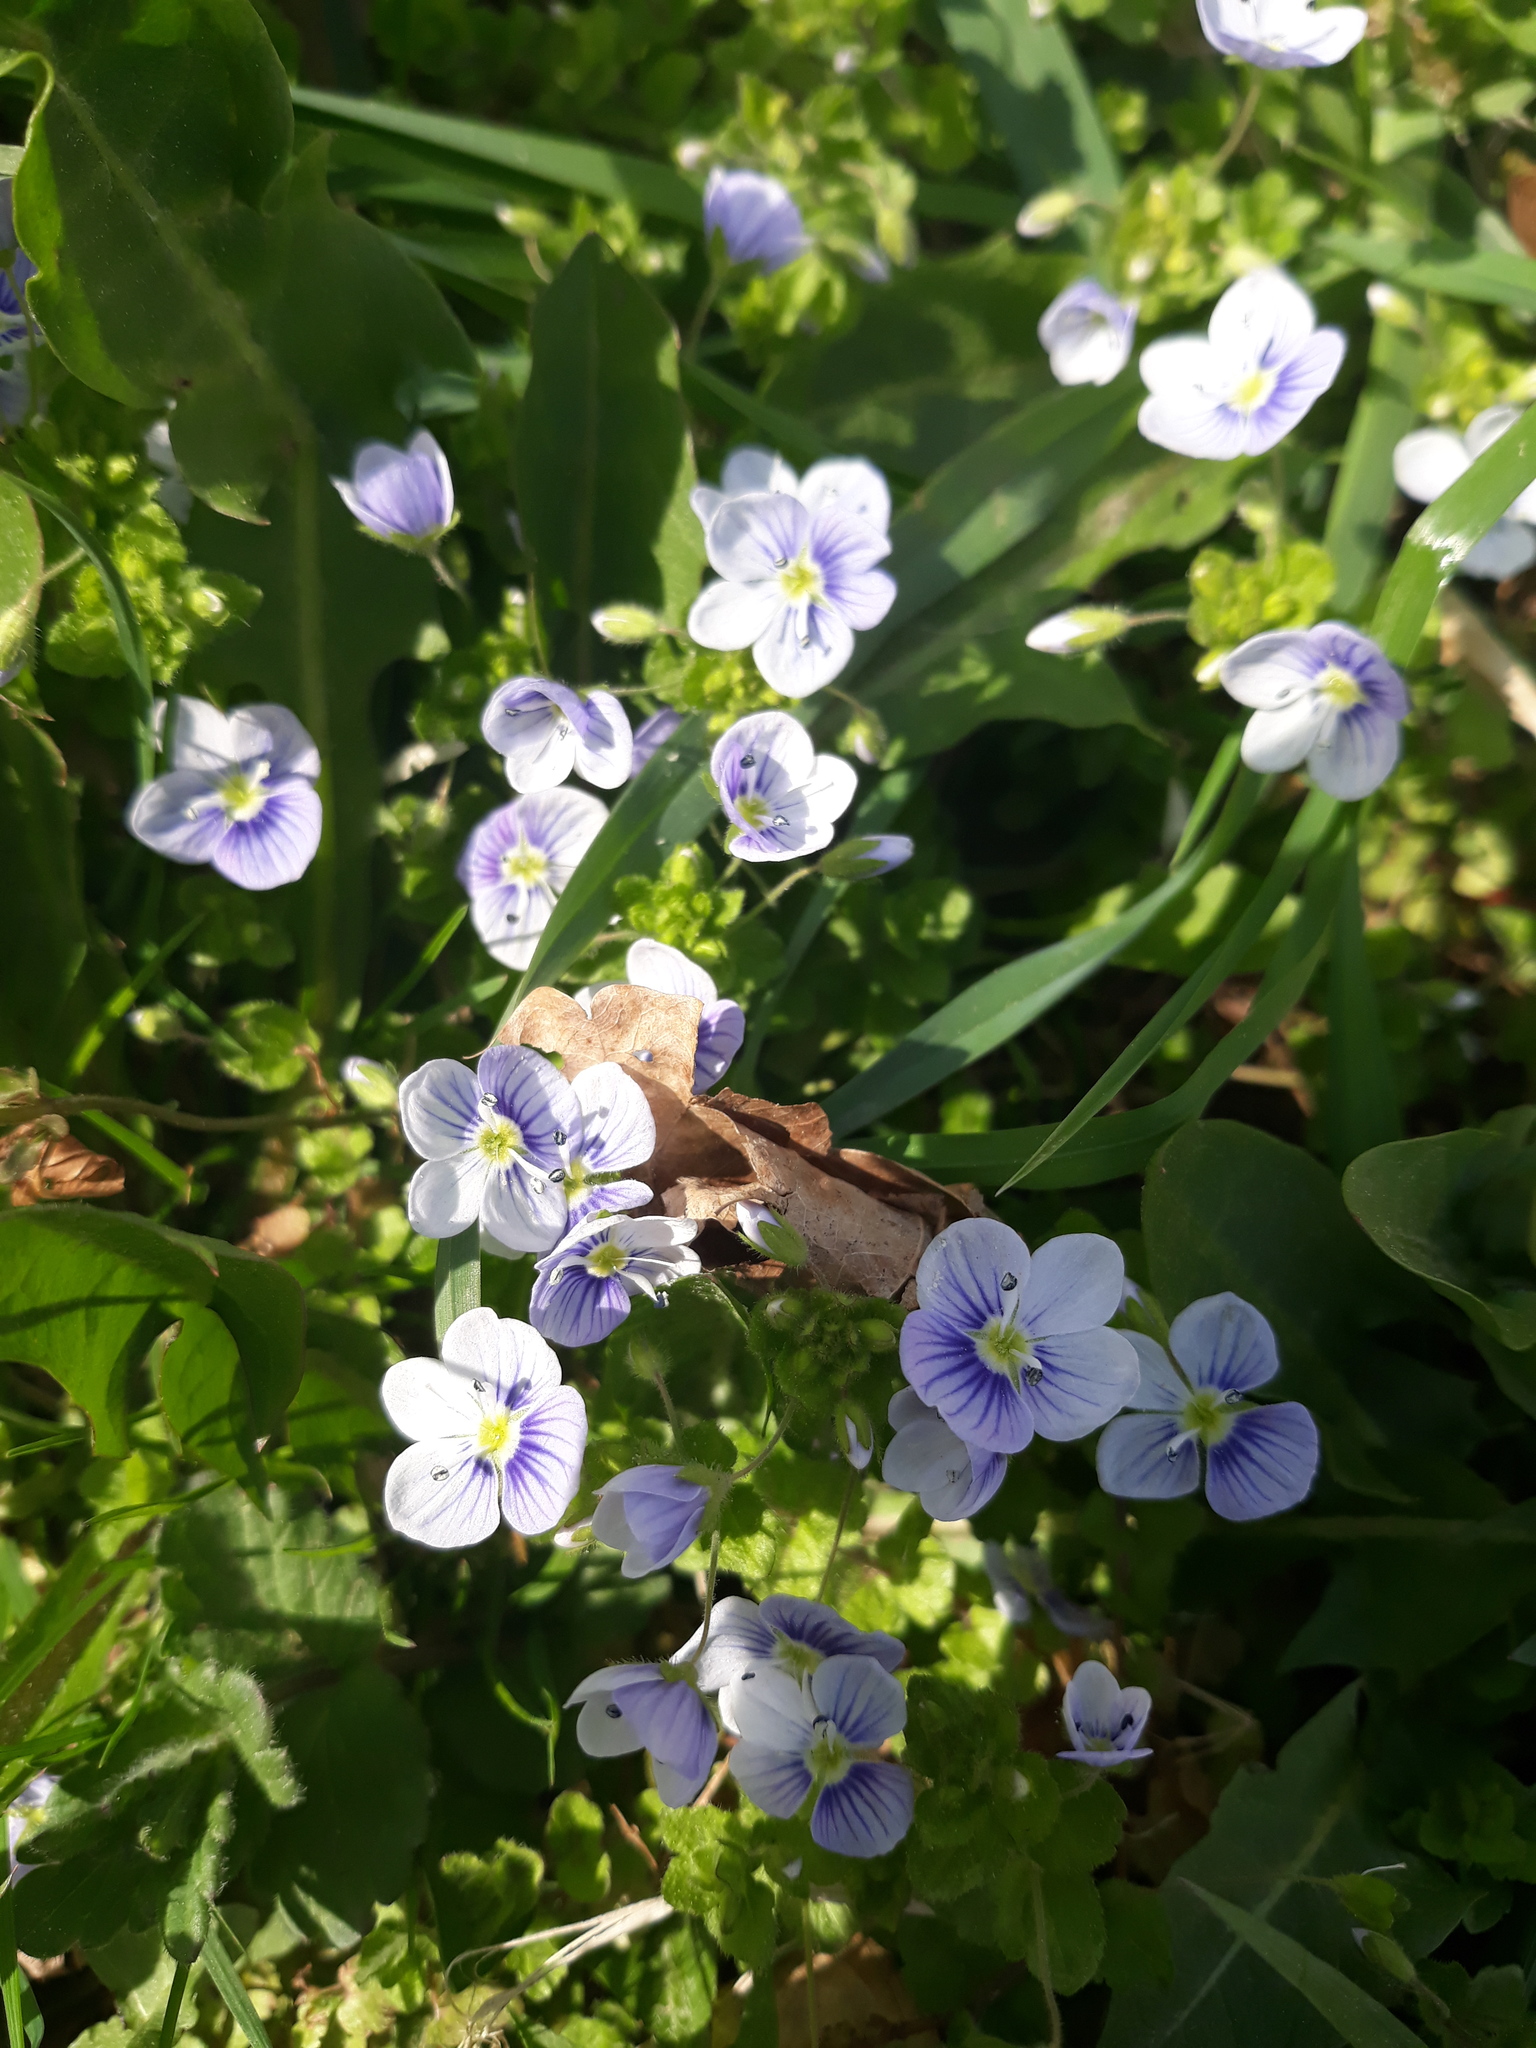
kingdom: Plantae
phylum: Tracheophyta
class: Magnoliopsida
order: Lamiales
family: Plantaginaceae
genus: Veronica
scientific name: Veronica filiformis
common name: Slender speedwell
